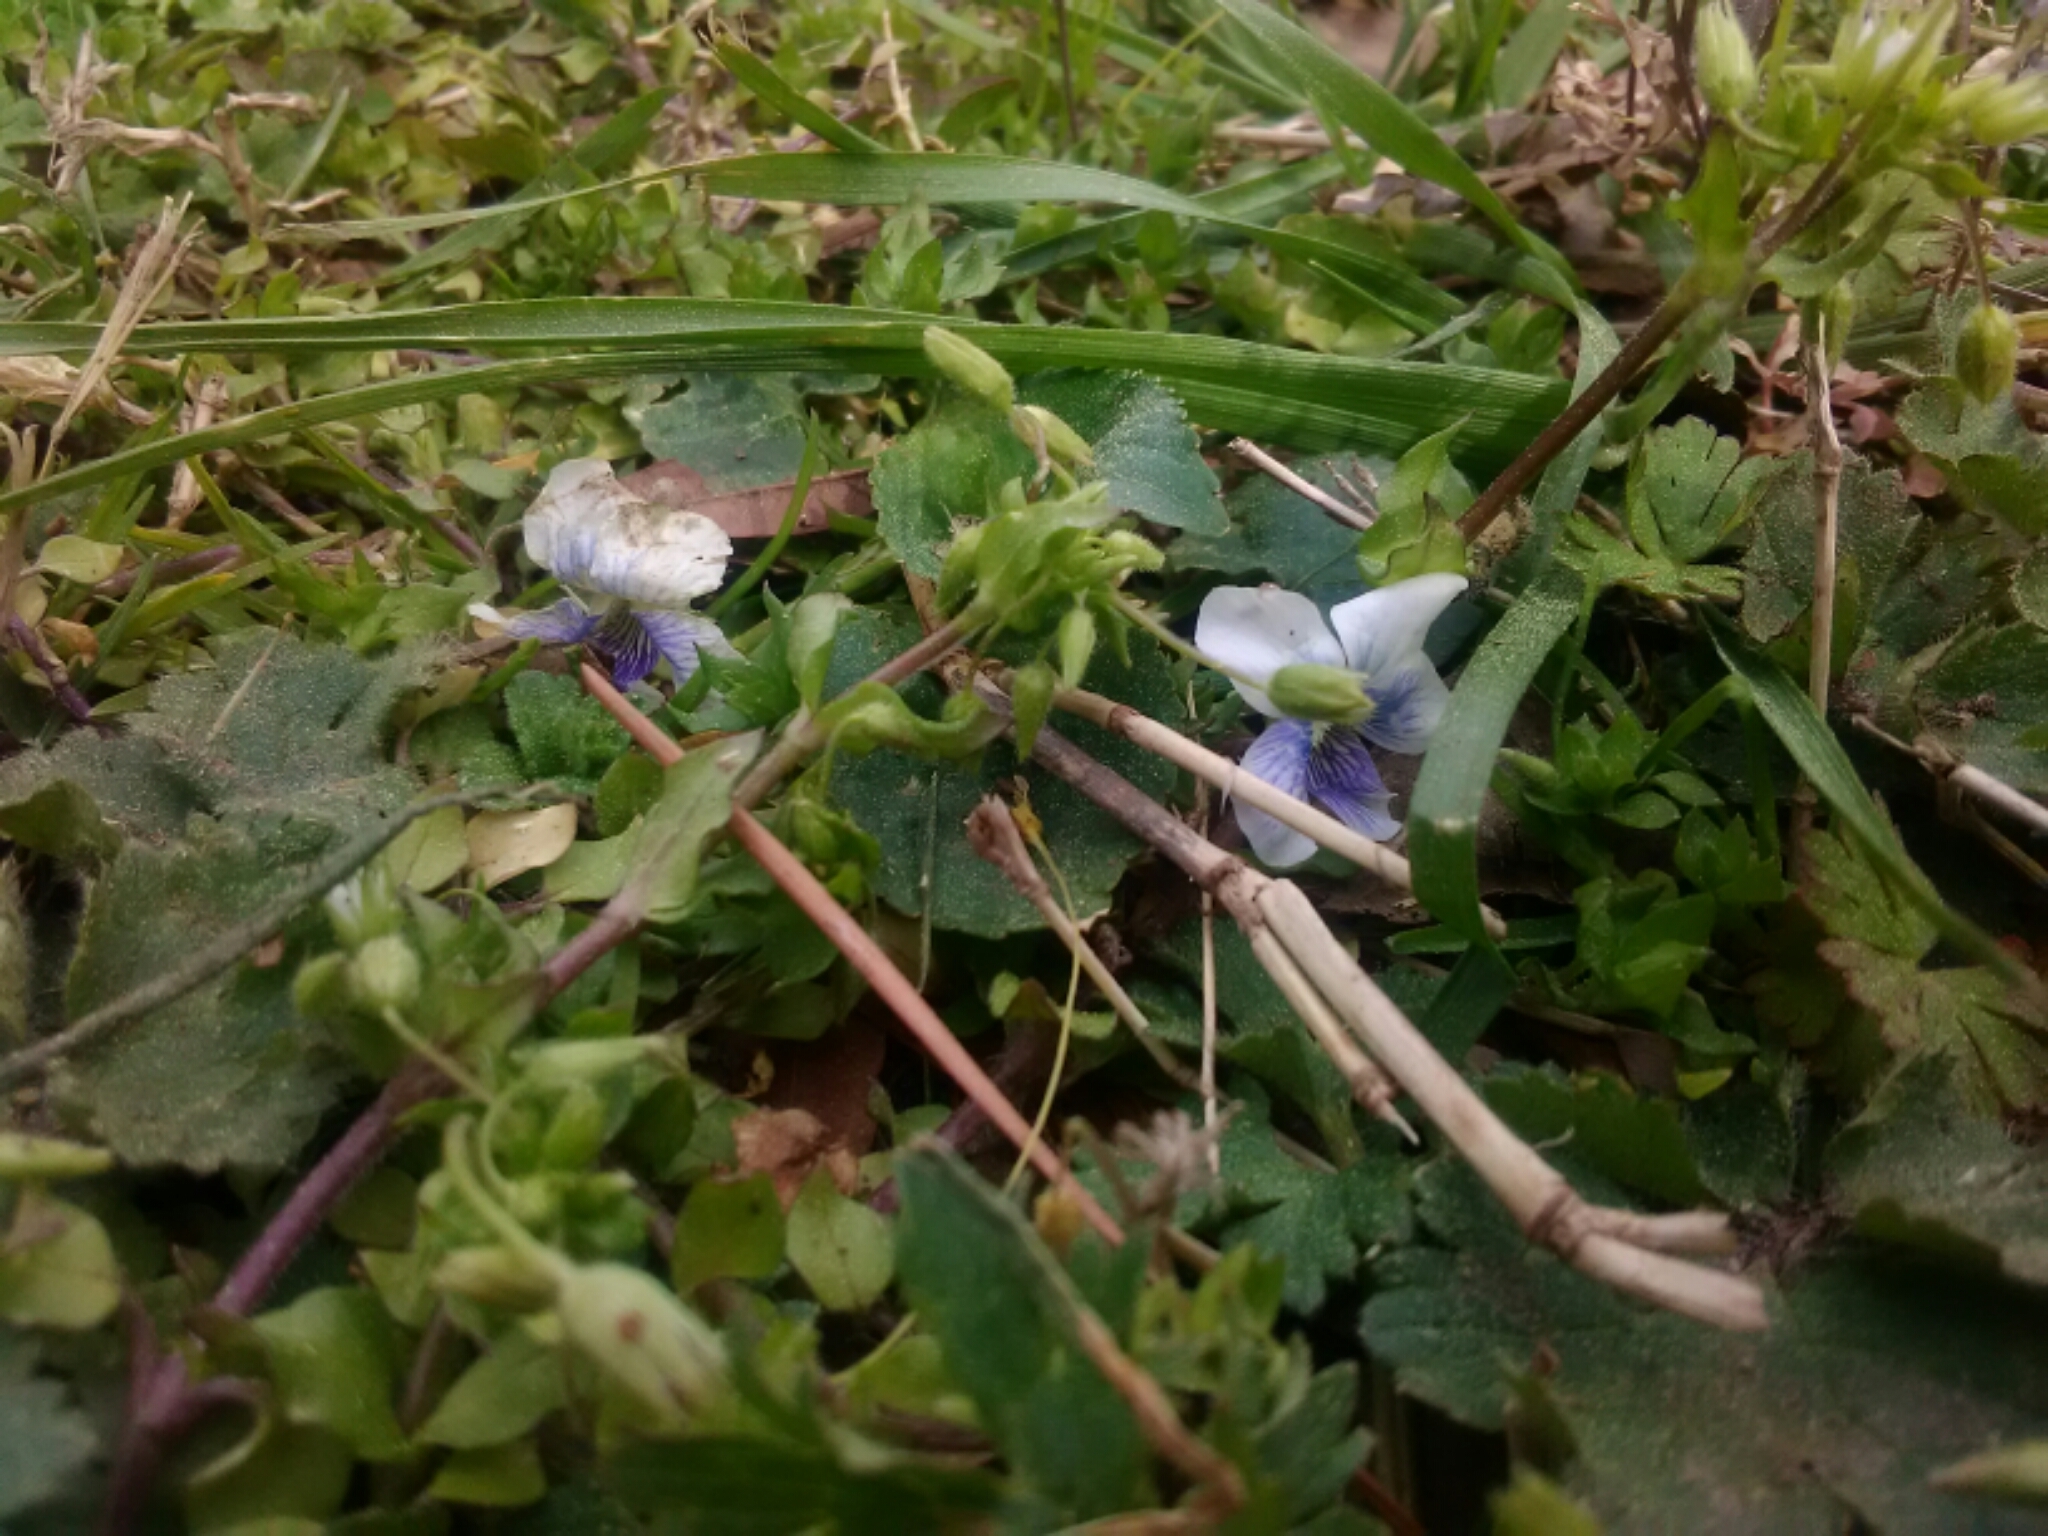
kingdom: Plantae
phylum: Tracheophyta
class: Magnoliopsida
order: Malpighiales
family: Violaceae
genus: Viola
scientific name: Viola sororia
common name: Dooryard violet
